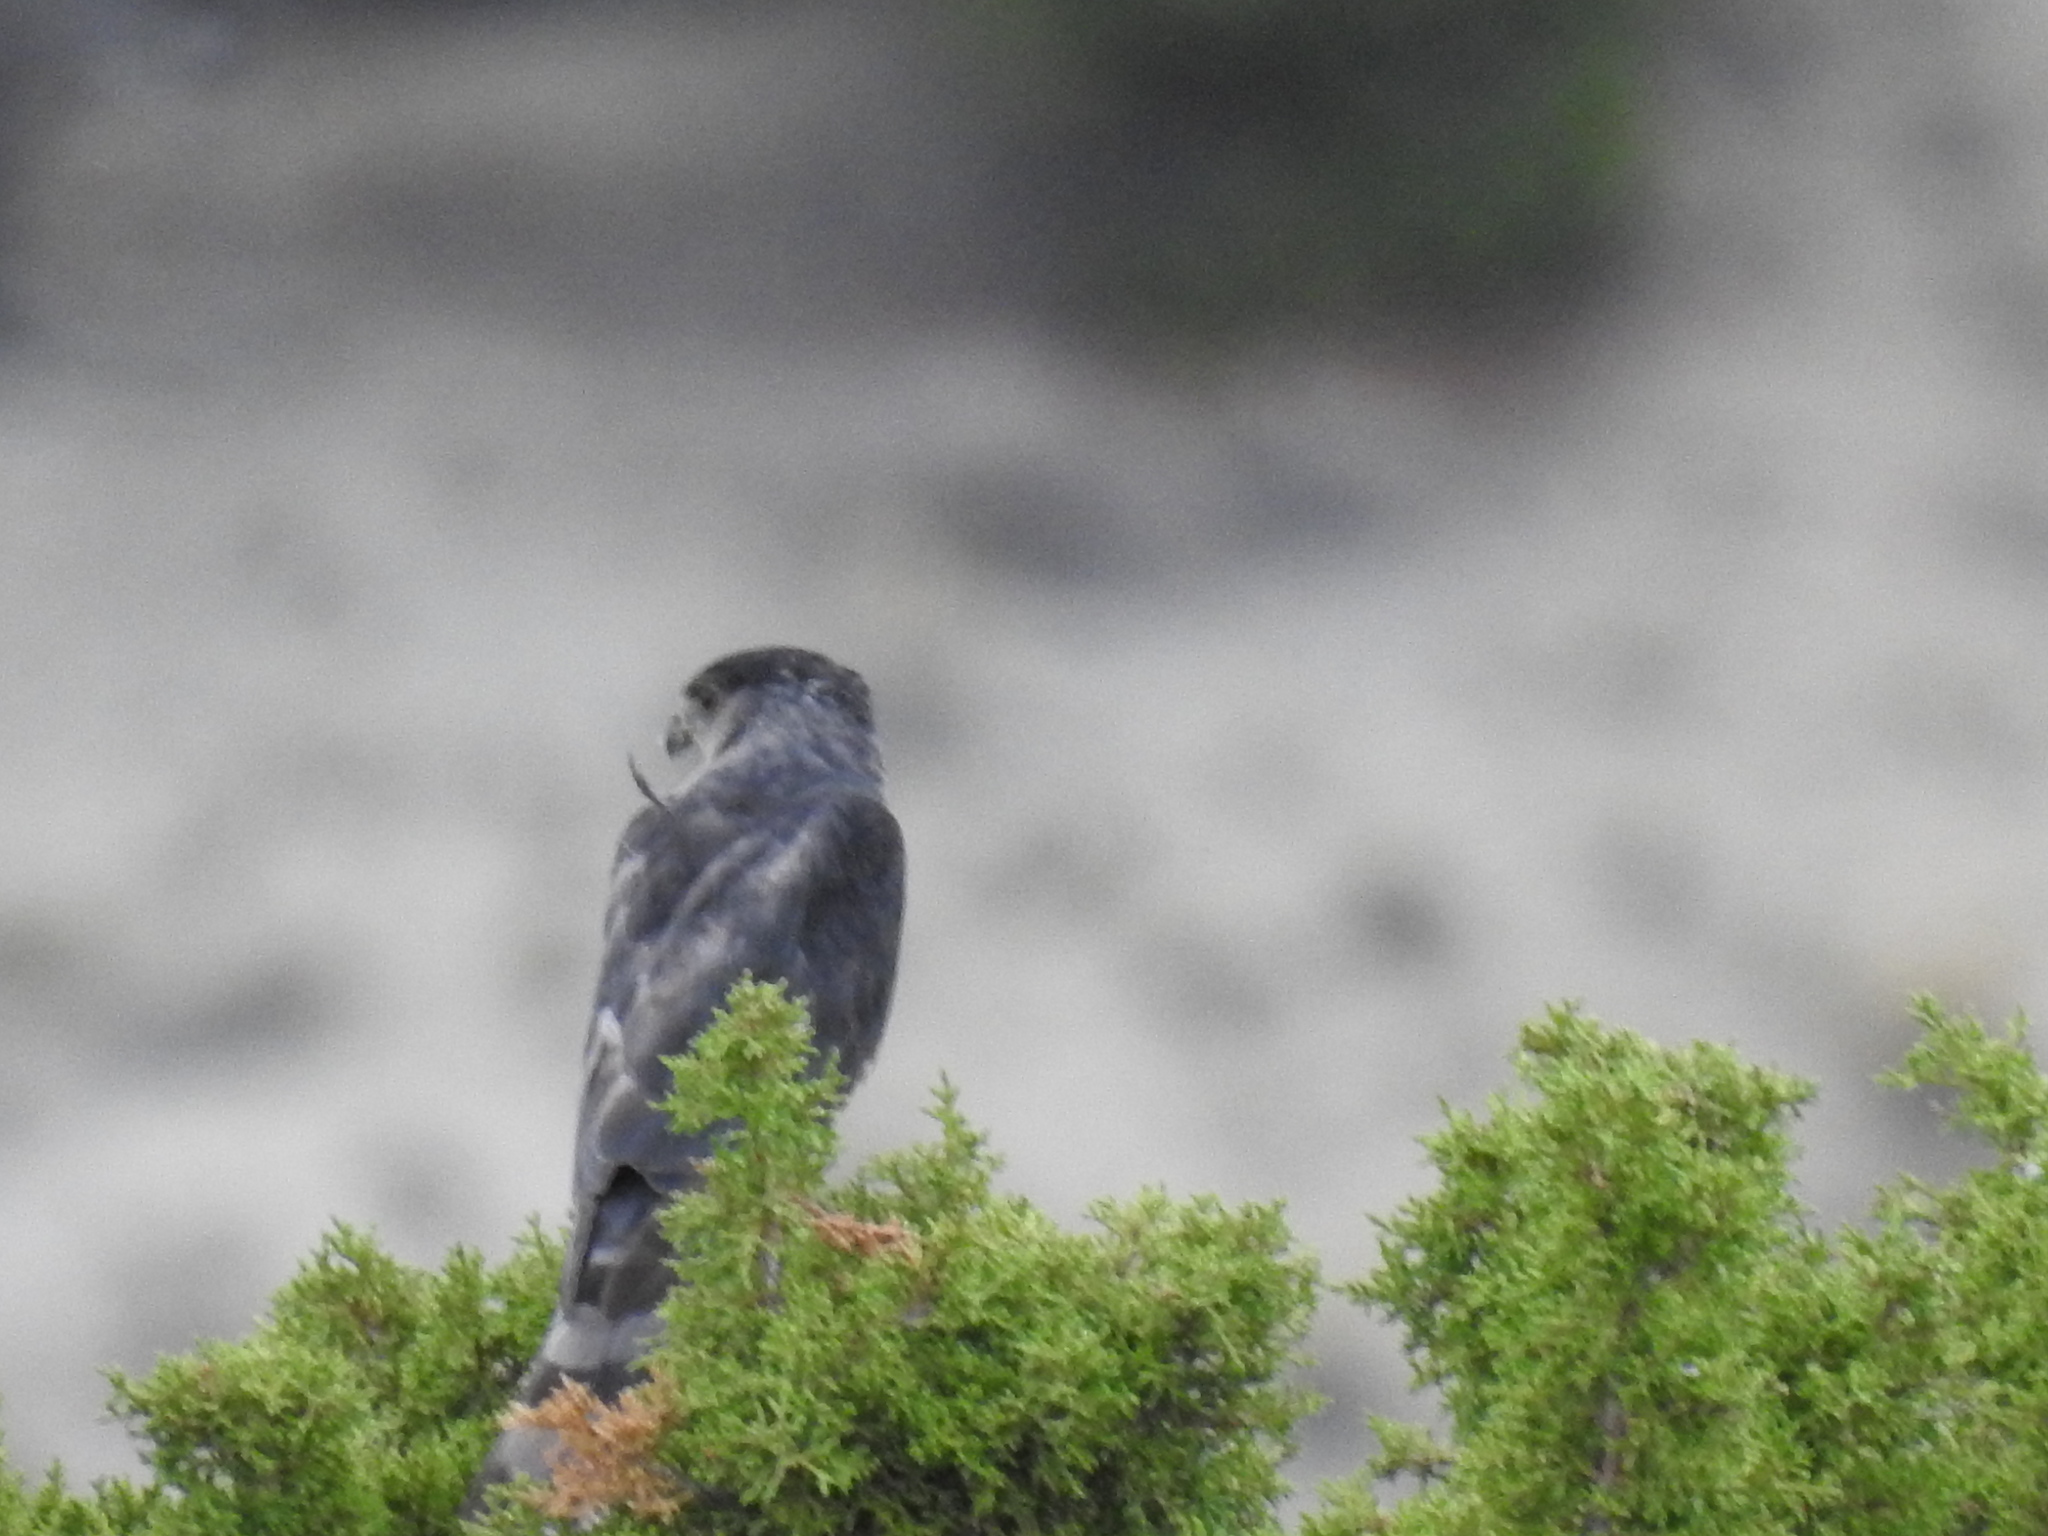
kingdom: Animalia
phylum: Chordata
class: Aves
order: Accipitriformes
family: Accipitridae
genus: Accipiter
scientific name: Accipiter cooperii
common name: Cooper's hawk
